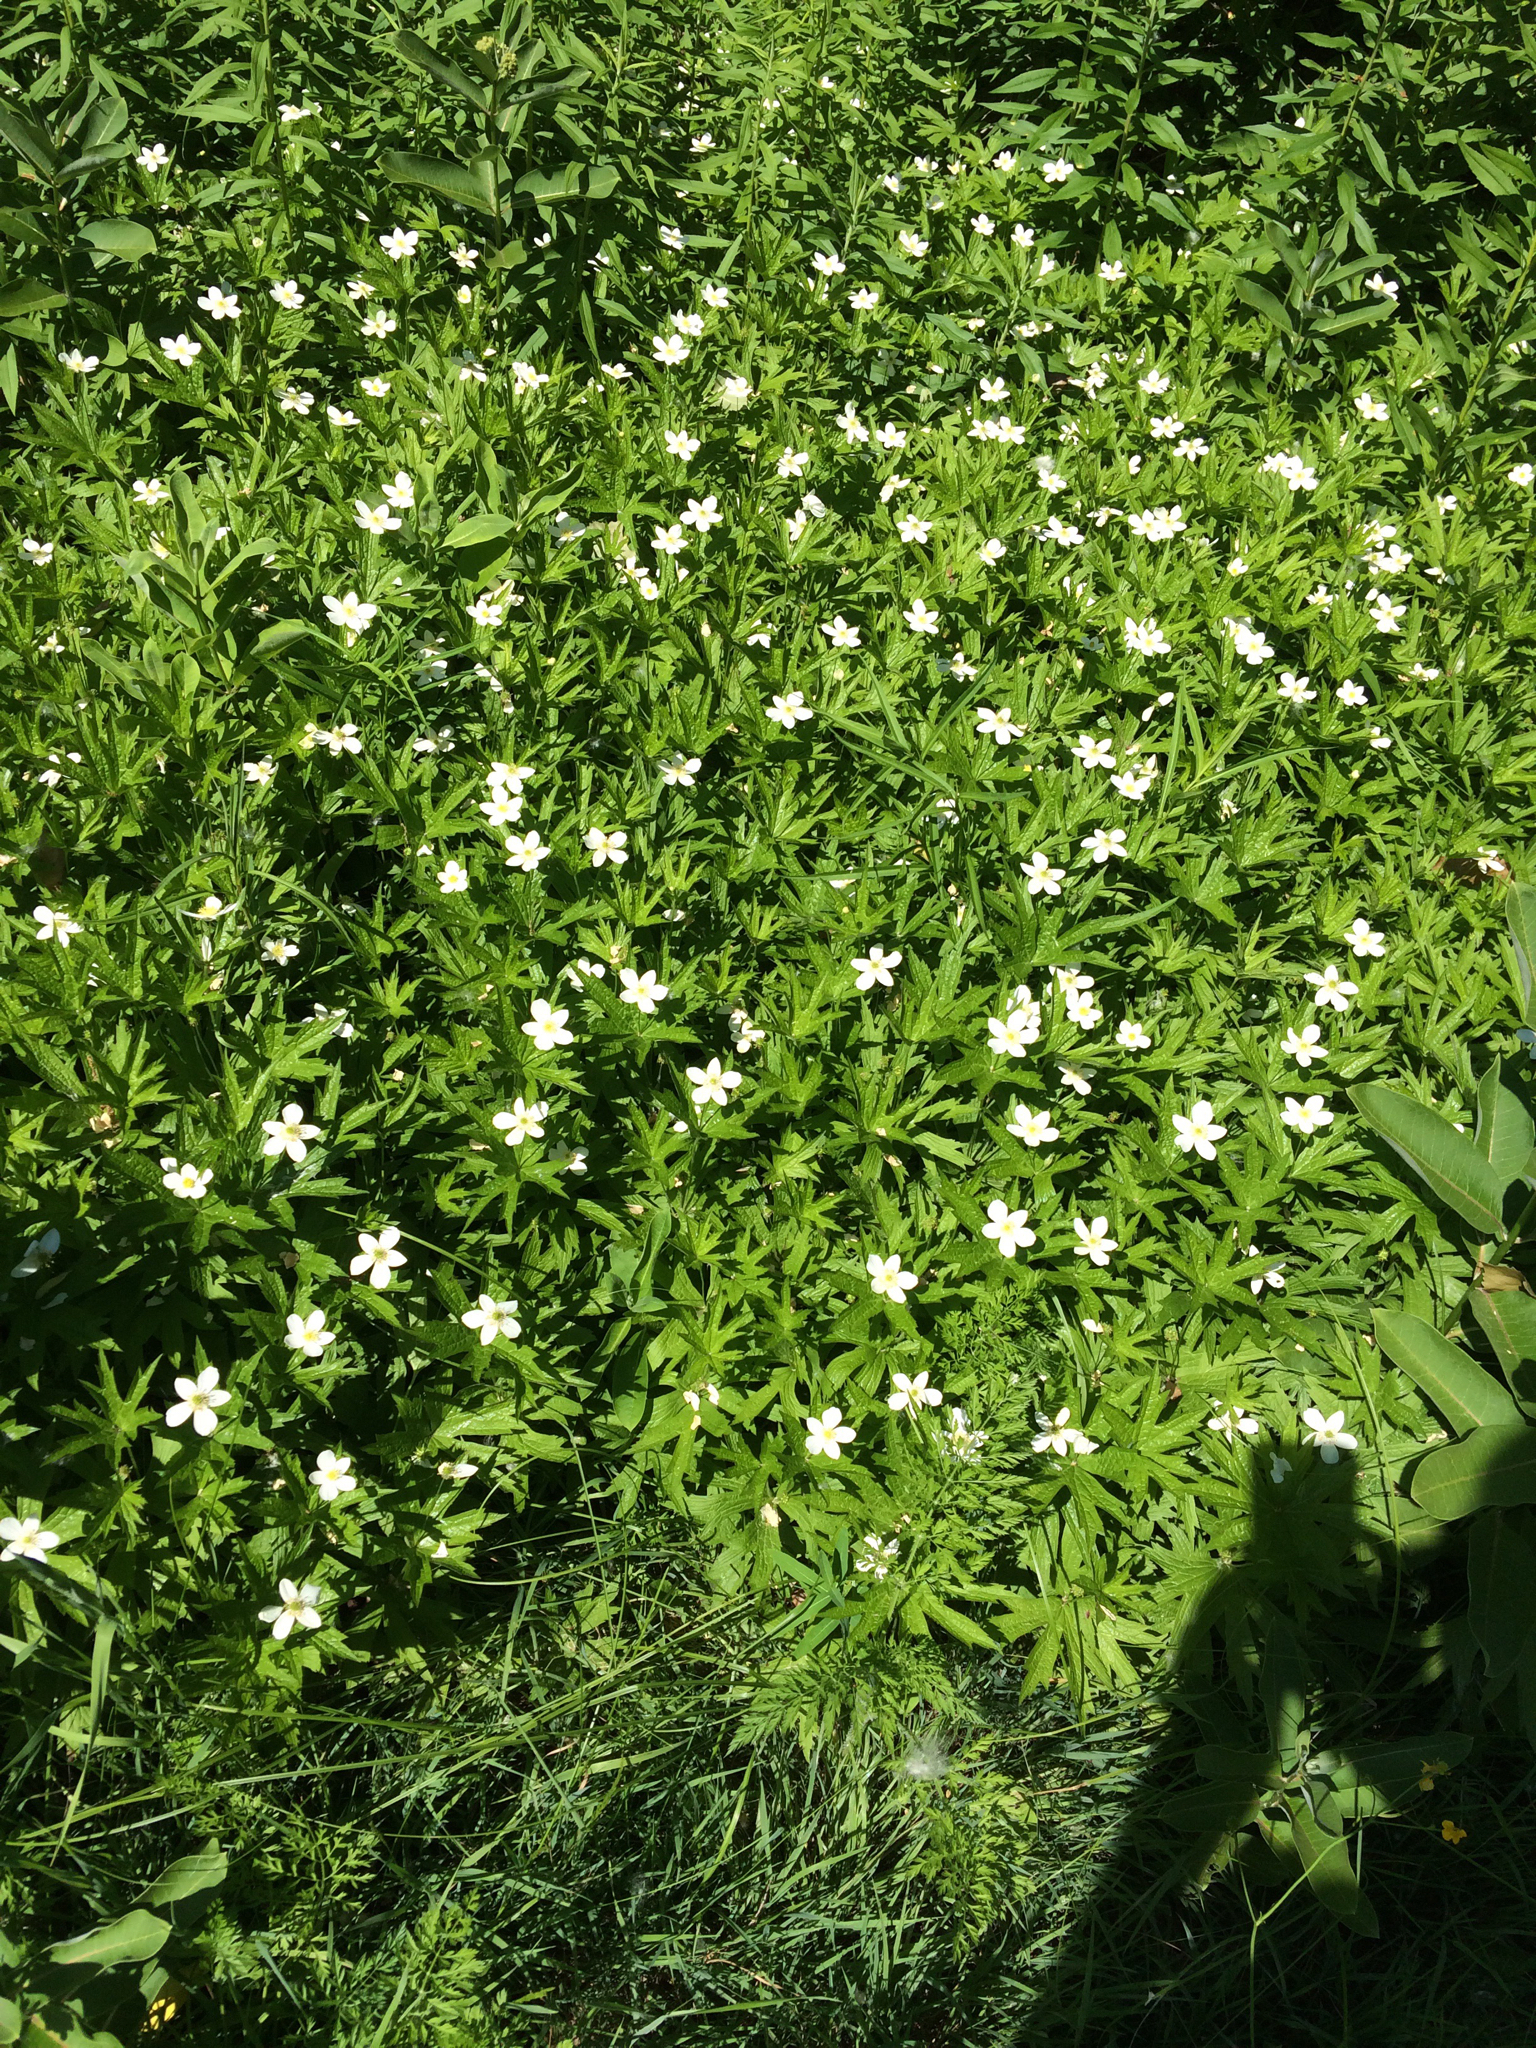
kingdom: Plantae
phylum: Tracheophyta
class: Magnoliopsida
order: Ranunculales
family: Ranunculaceae
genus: Anemonastrum
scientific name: Anemonastrum canadense
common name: Canada anemone
